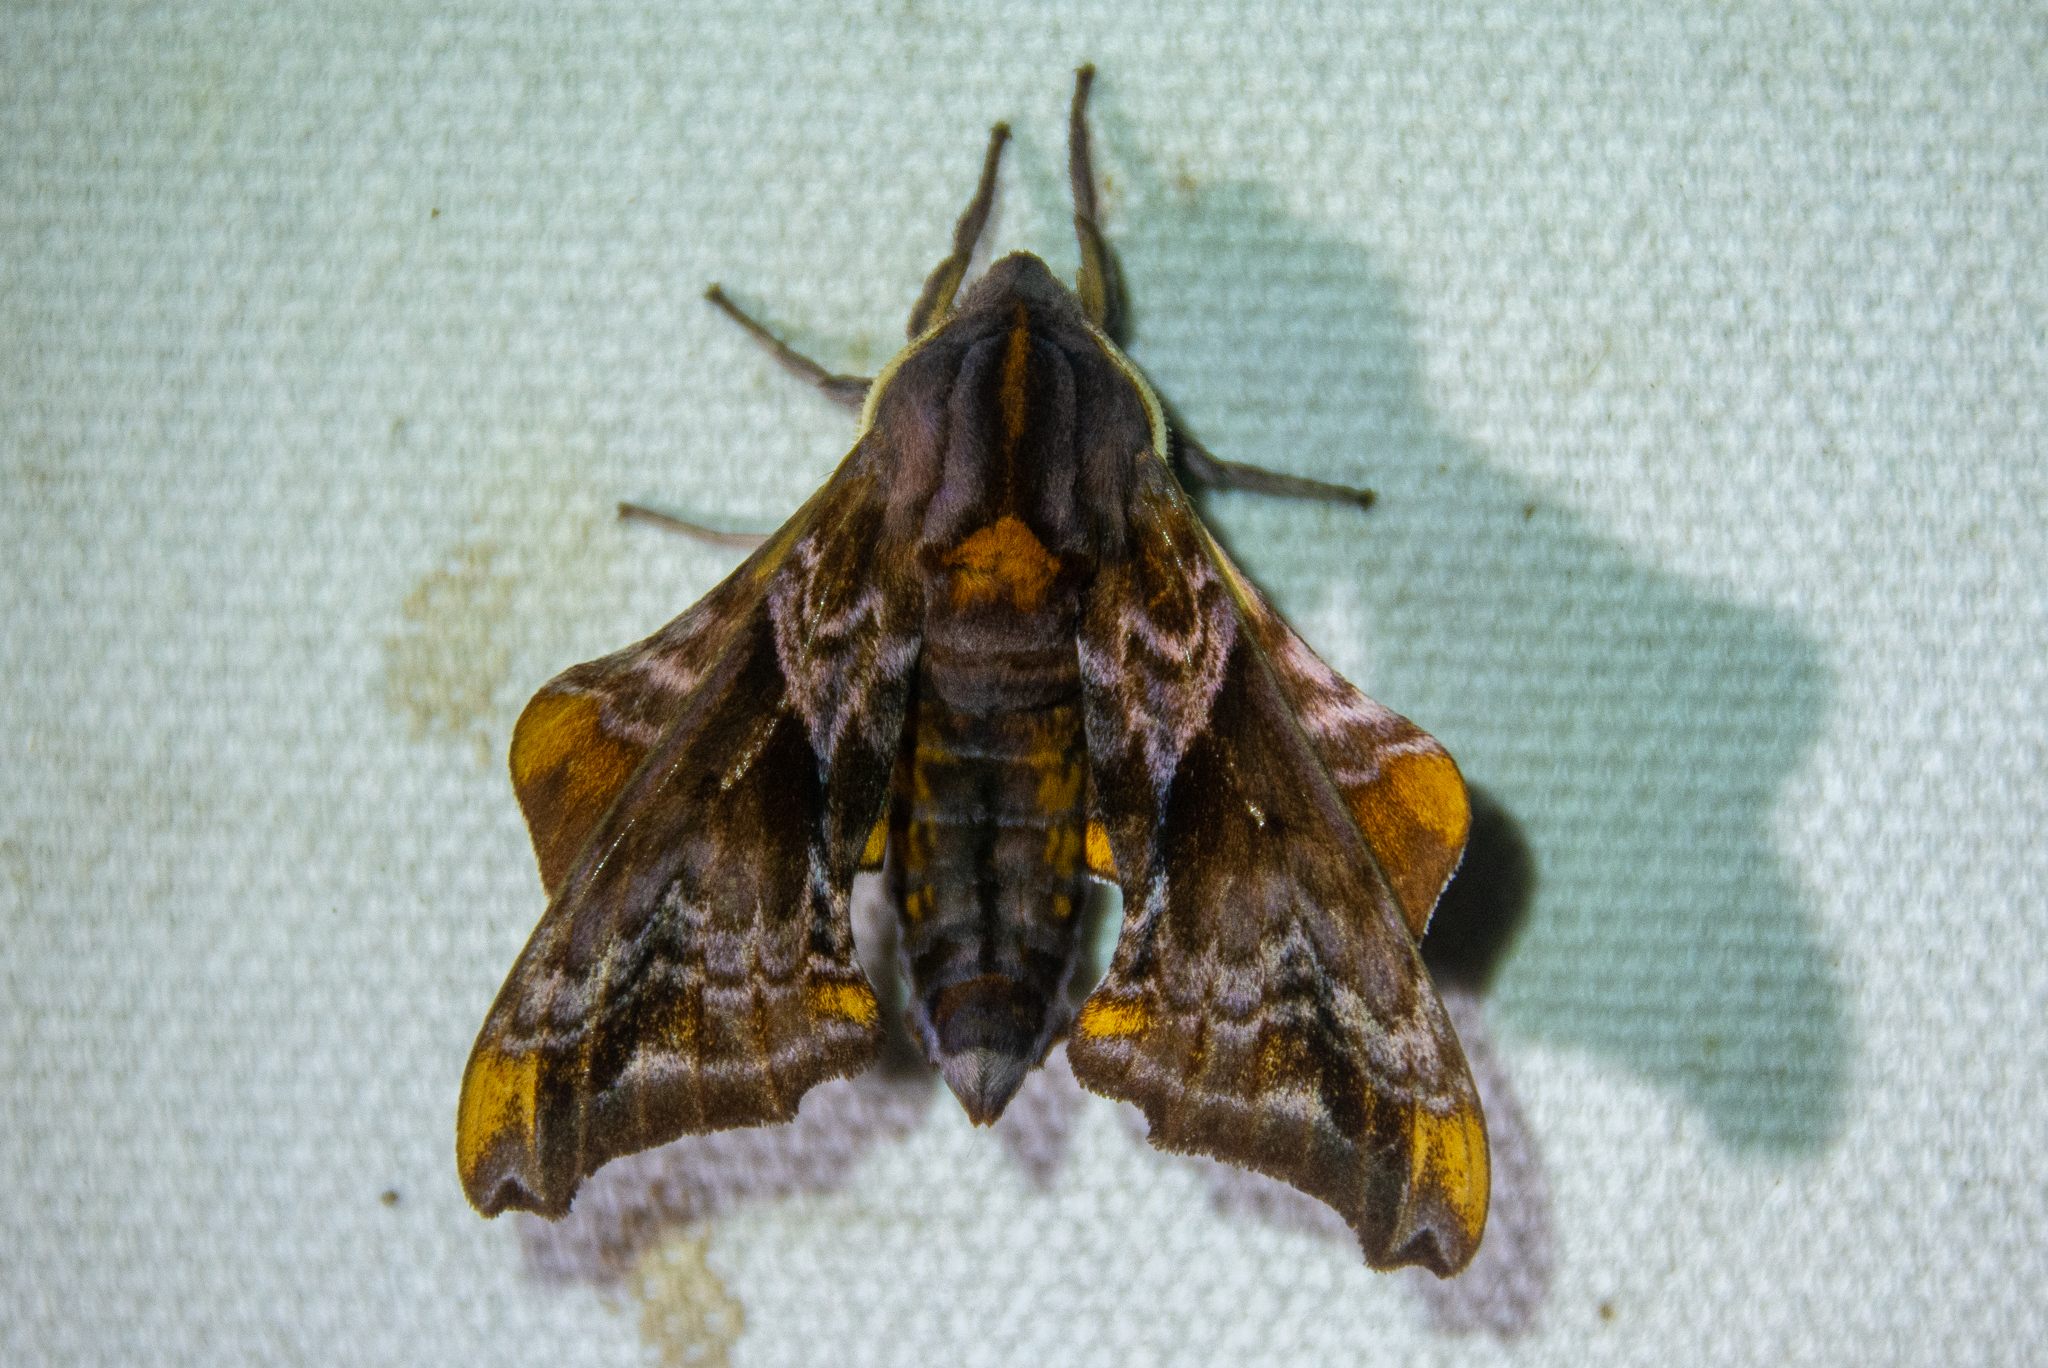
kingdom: Animalia
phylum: Arthropoda
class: Insecta
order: Lepidoptera
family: Sphingidae
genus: Paonias
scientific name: Paonias myops
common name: Small-eyed sphinx
